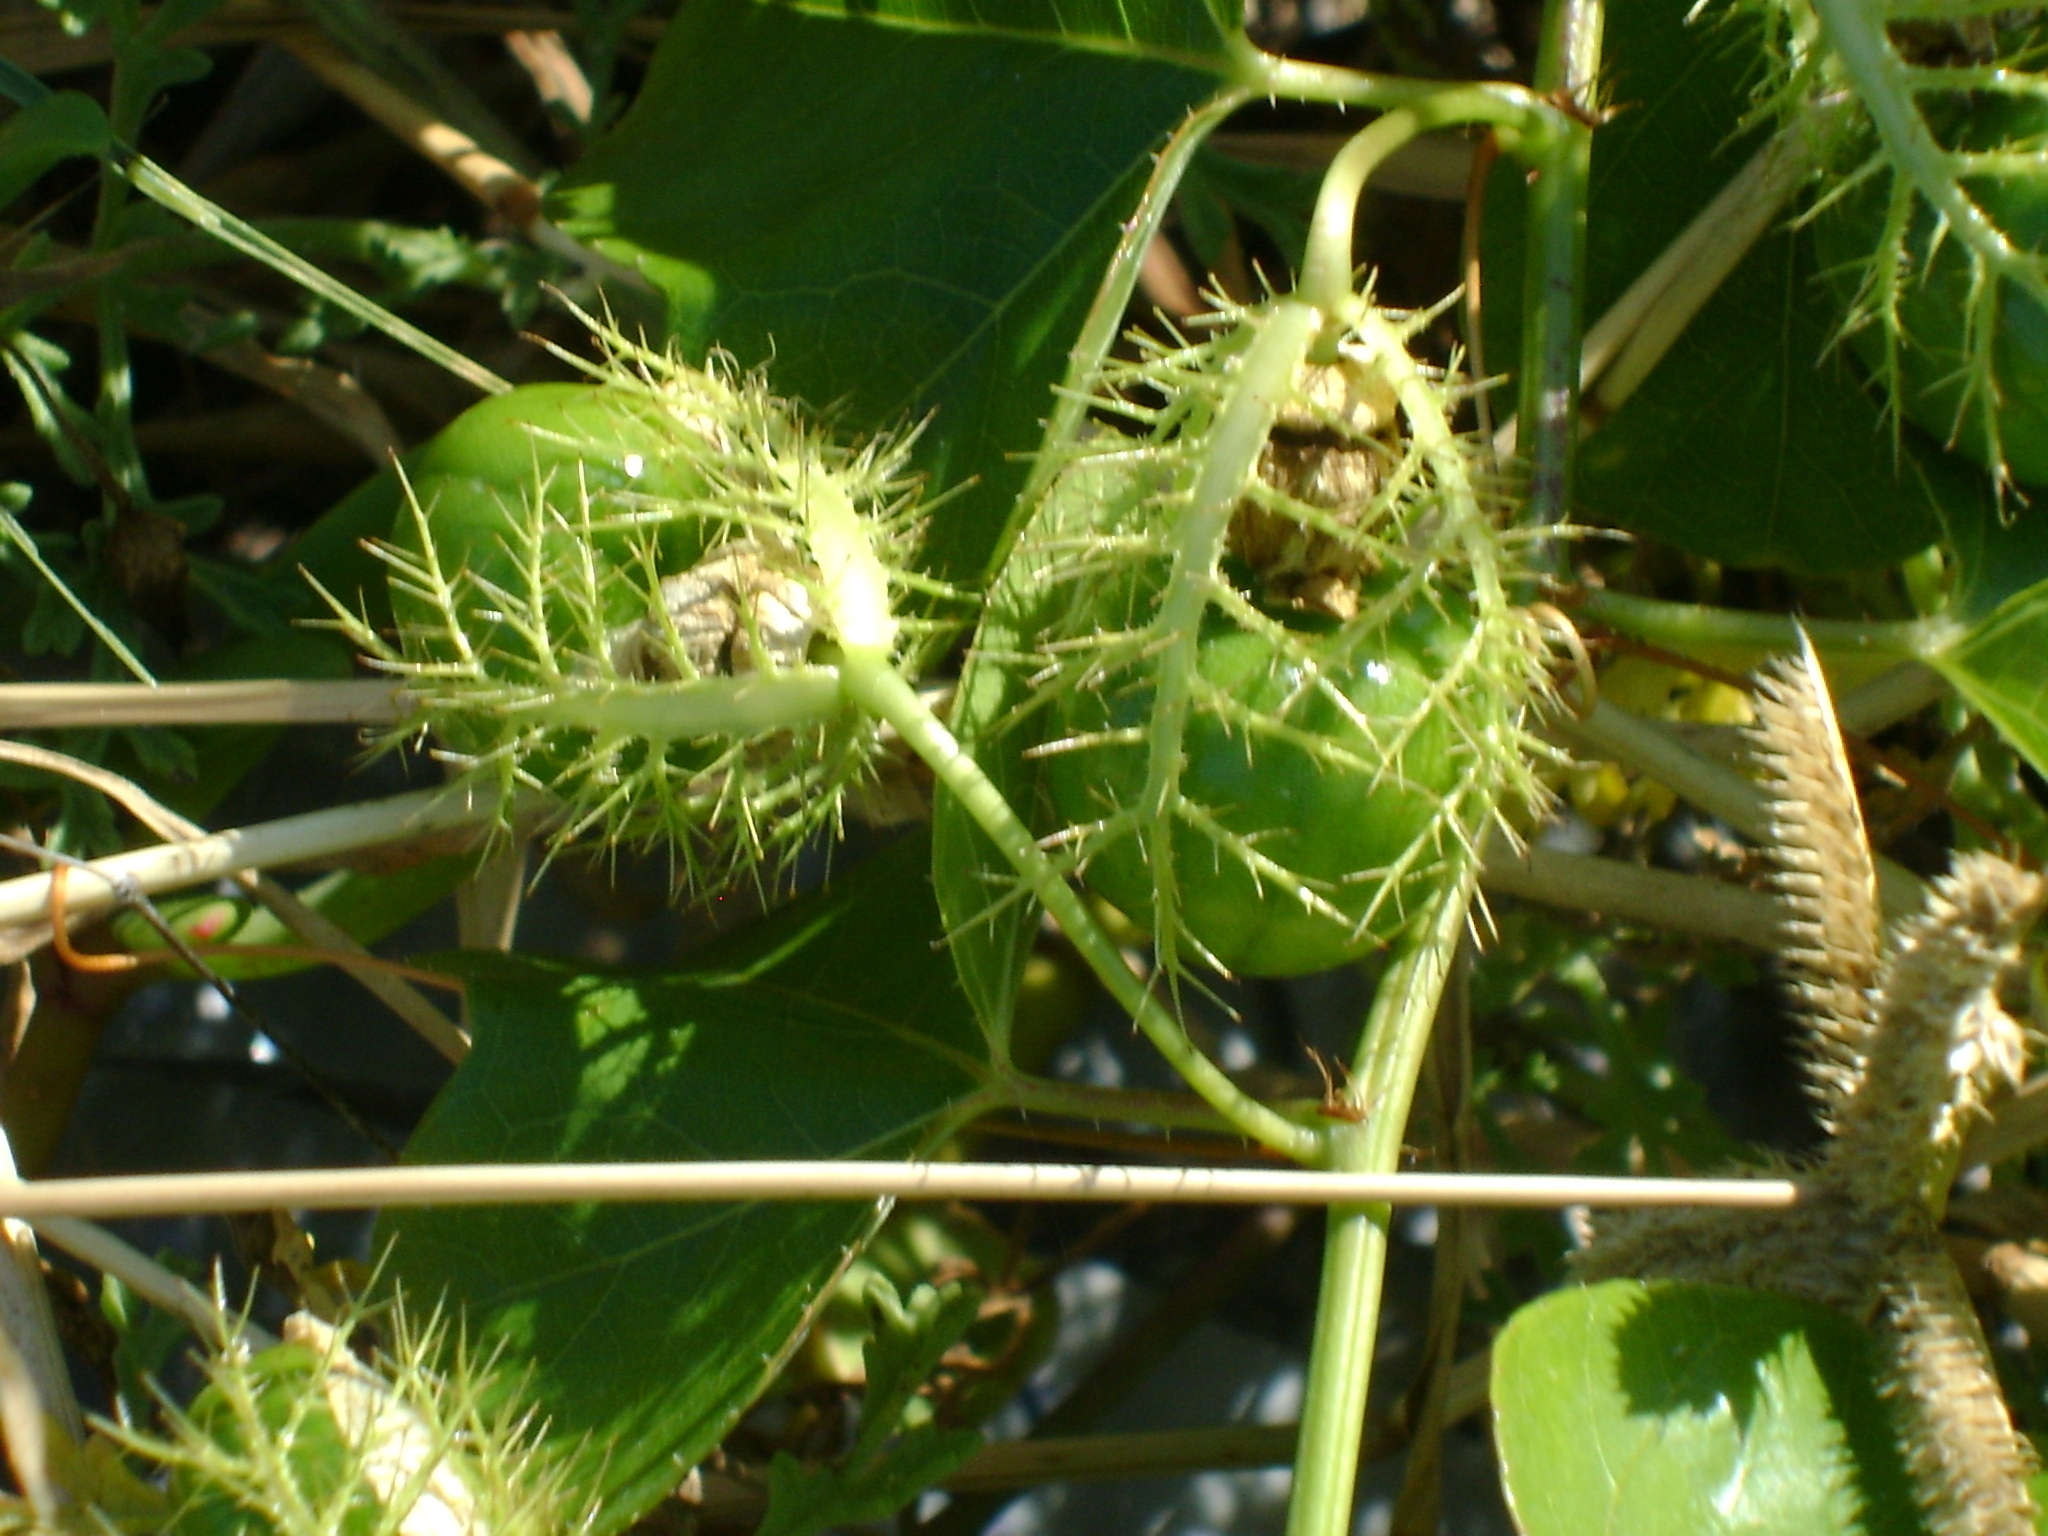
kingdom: Plantae
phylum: Tracheophyta
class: Magnoliopsida
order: Malpighiales
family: Passifloraceae
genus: Passiflora
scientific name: Passiflora ciliata
